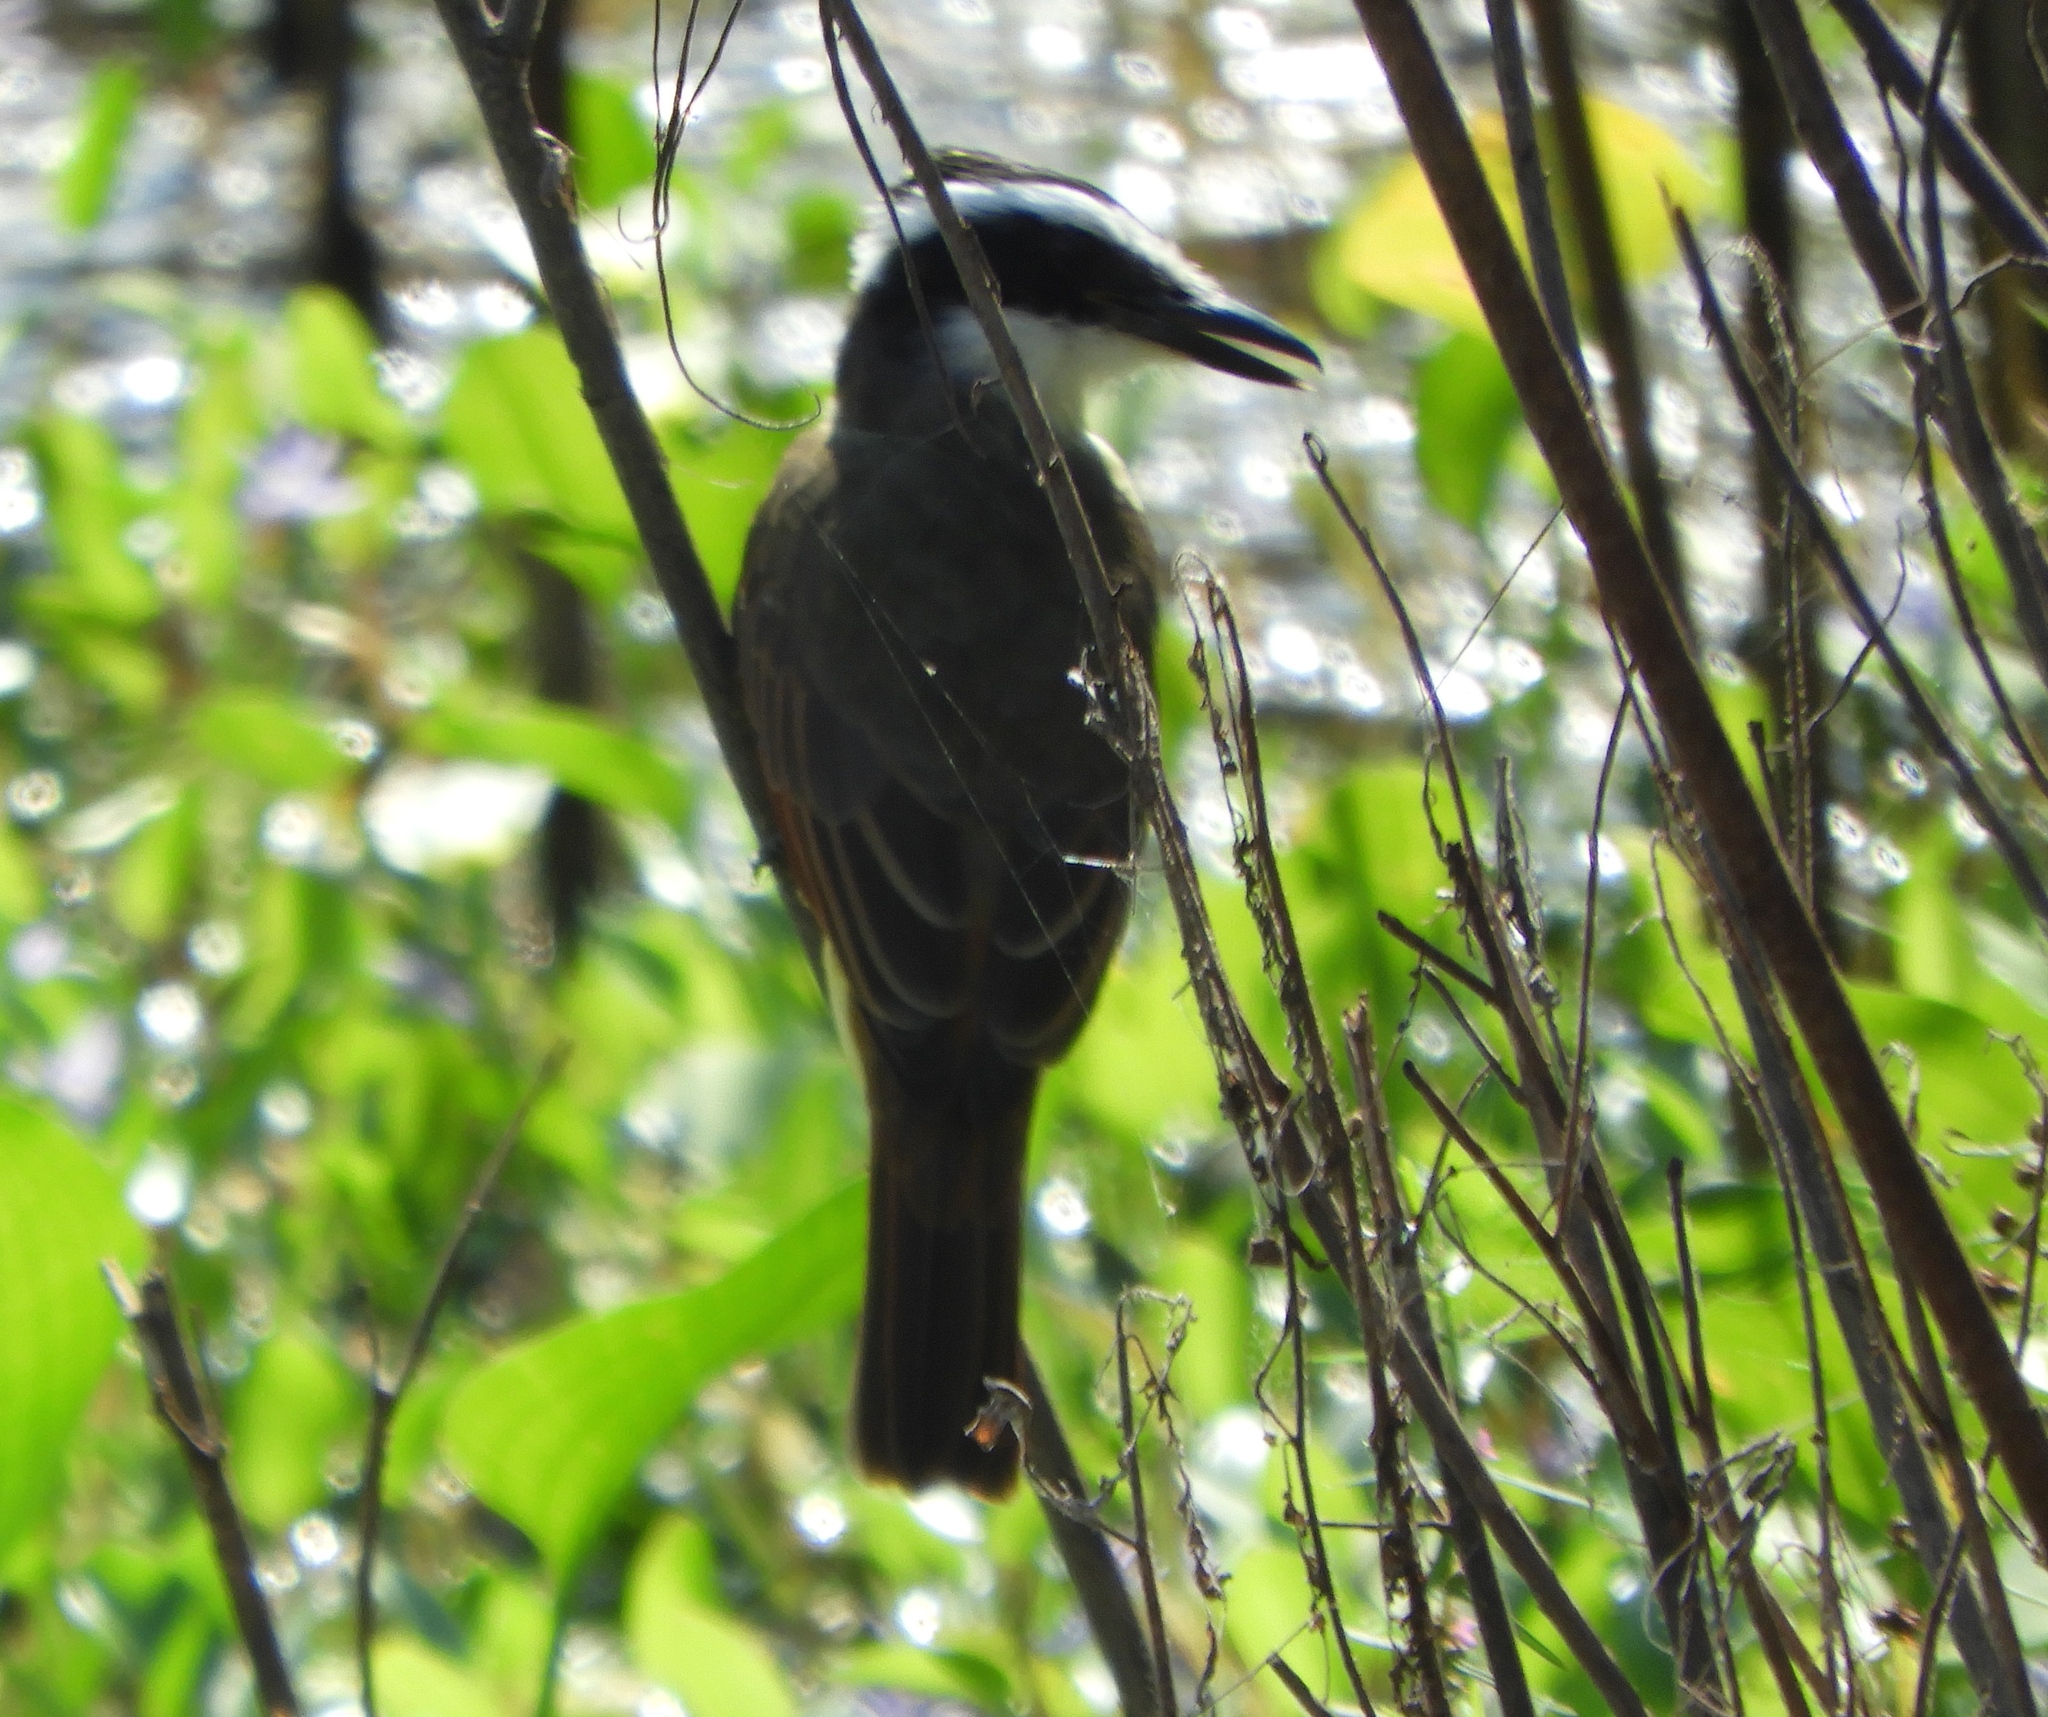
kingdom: Animalia
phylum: Chordata
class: Aves
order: Passeriformes
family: Tyrannidae
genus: Pitangus
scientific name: Pitangus sulphuratus
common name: Great kiskadee
